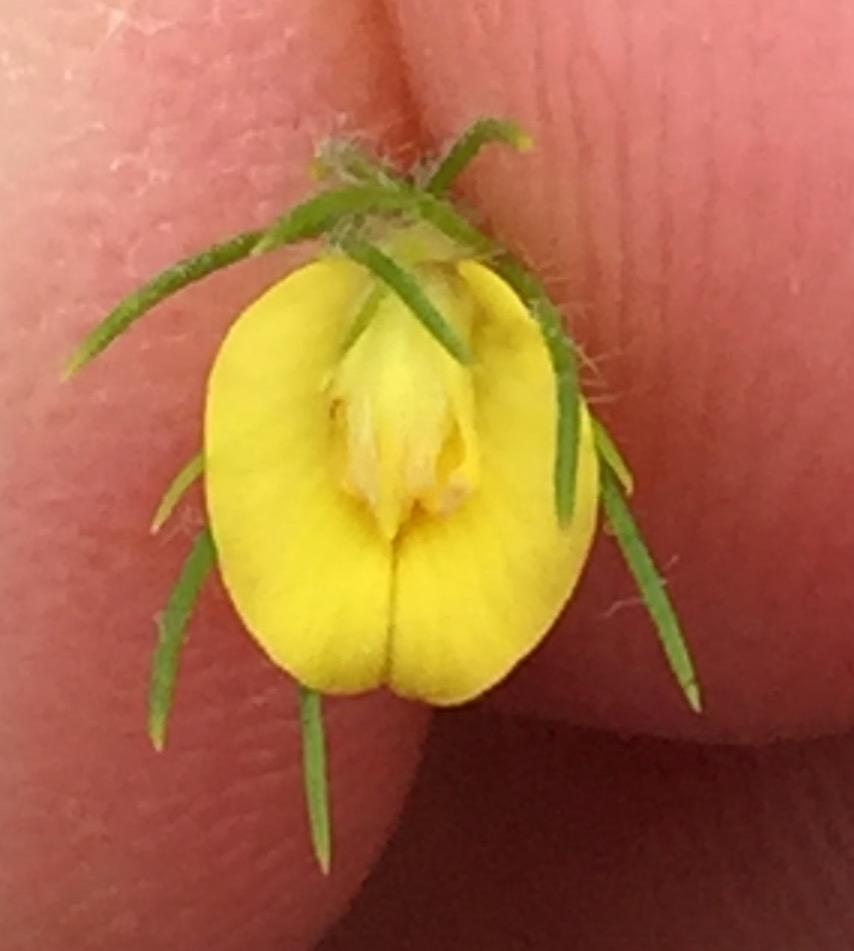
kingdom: Plantae
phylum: Tracheophyta
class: Magnoliopsida
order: Fabales
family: Fabaceae
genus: Aspalathus
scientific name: Aspalathus alopecurus
